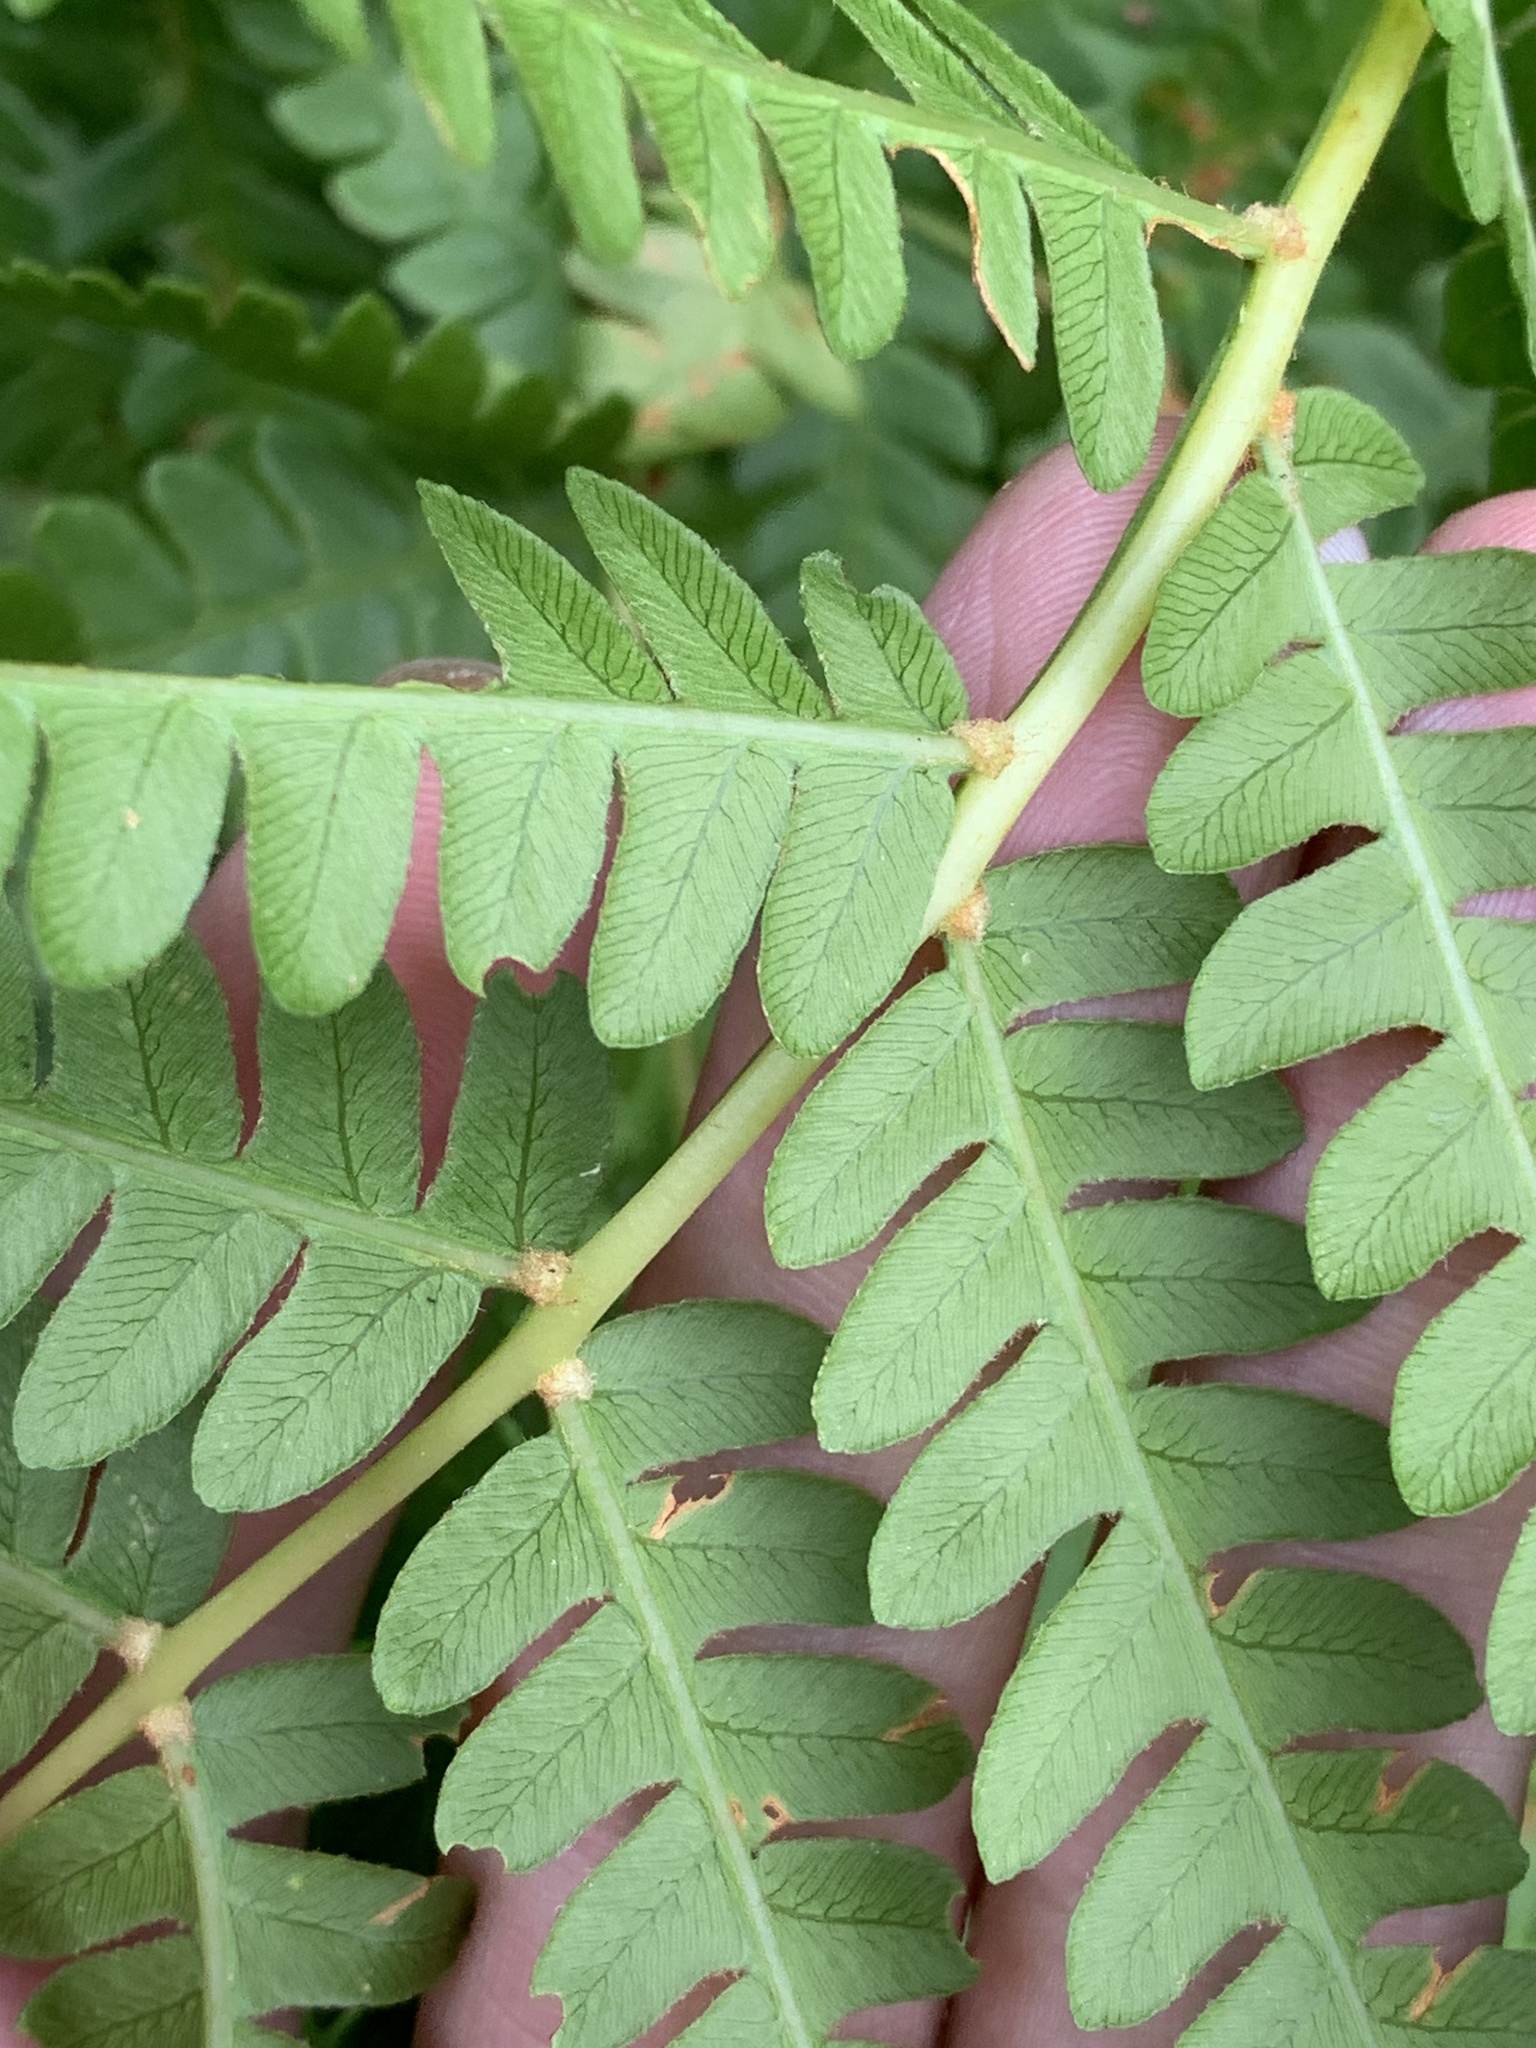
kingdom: Plantae
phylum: Tracheophyta
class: Polypodiopsida
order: Osmundales
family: Osmundaceae
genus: Osmundastrum
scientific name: Osmundastrum cinnamomeum
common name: Cinnamon fern
